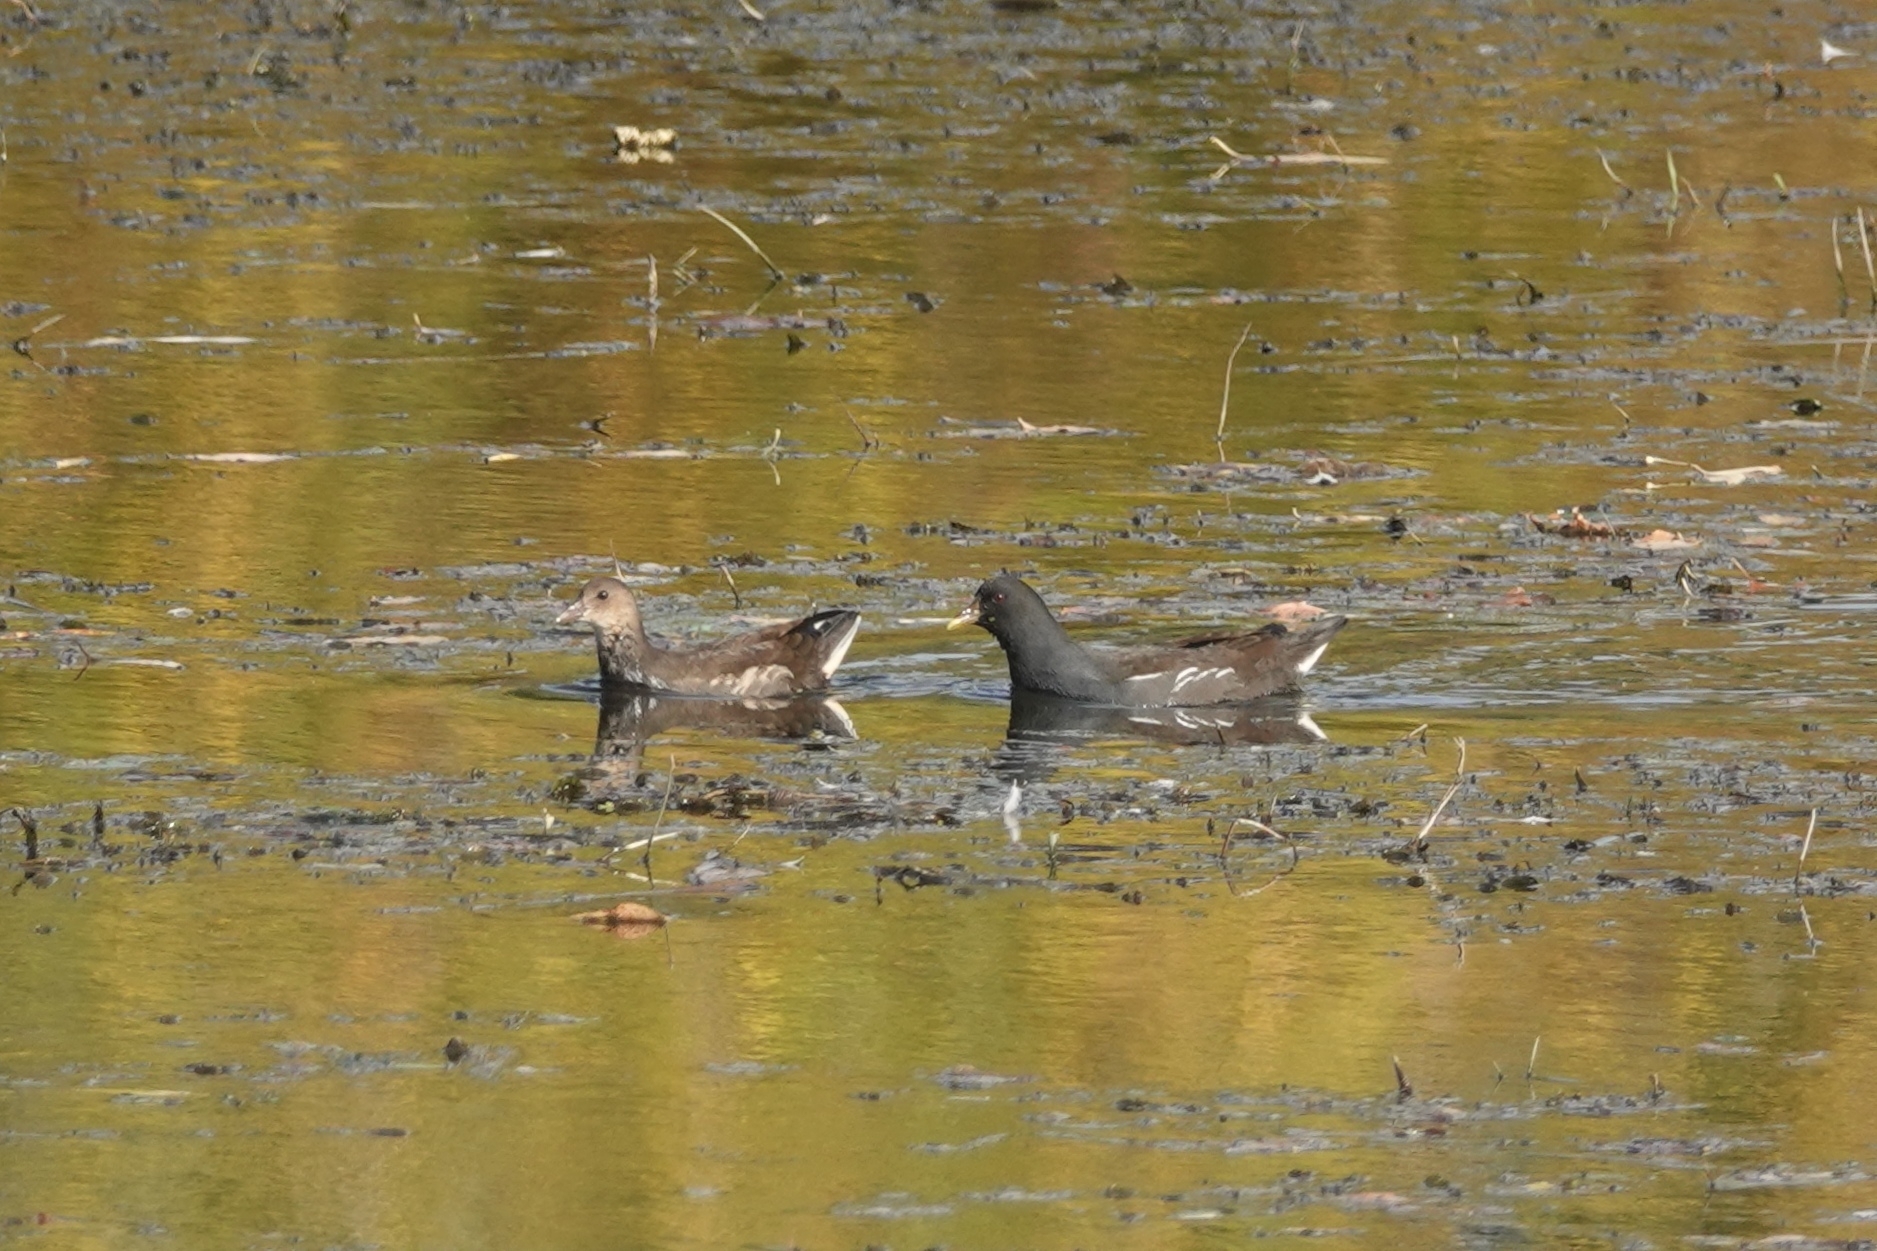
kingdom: Animalia
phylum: Chordata
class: Aves
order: Gruiformes
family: Rallidae
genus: Gallinula
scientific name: Gallinula chloropus
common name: Common moorhen
